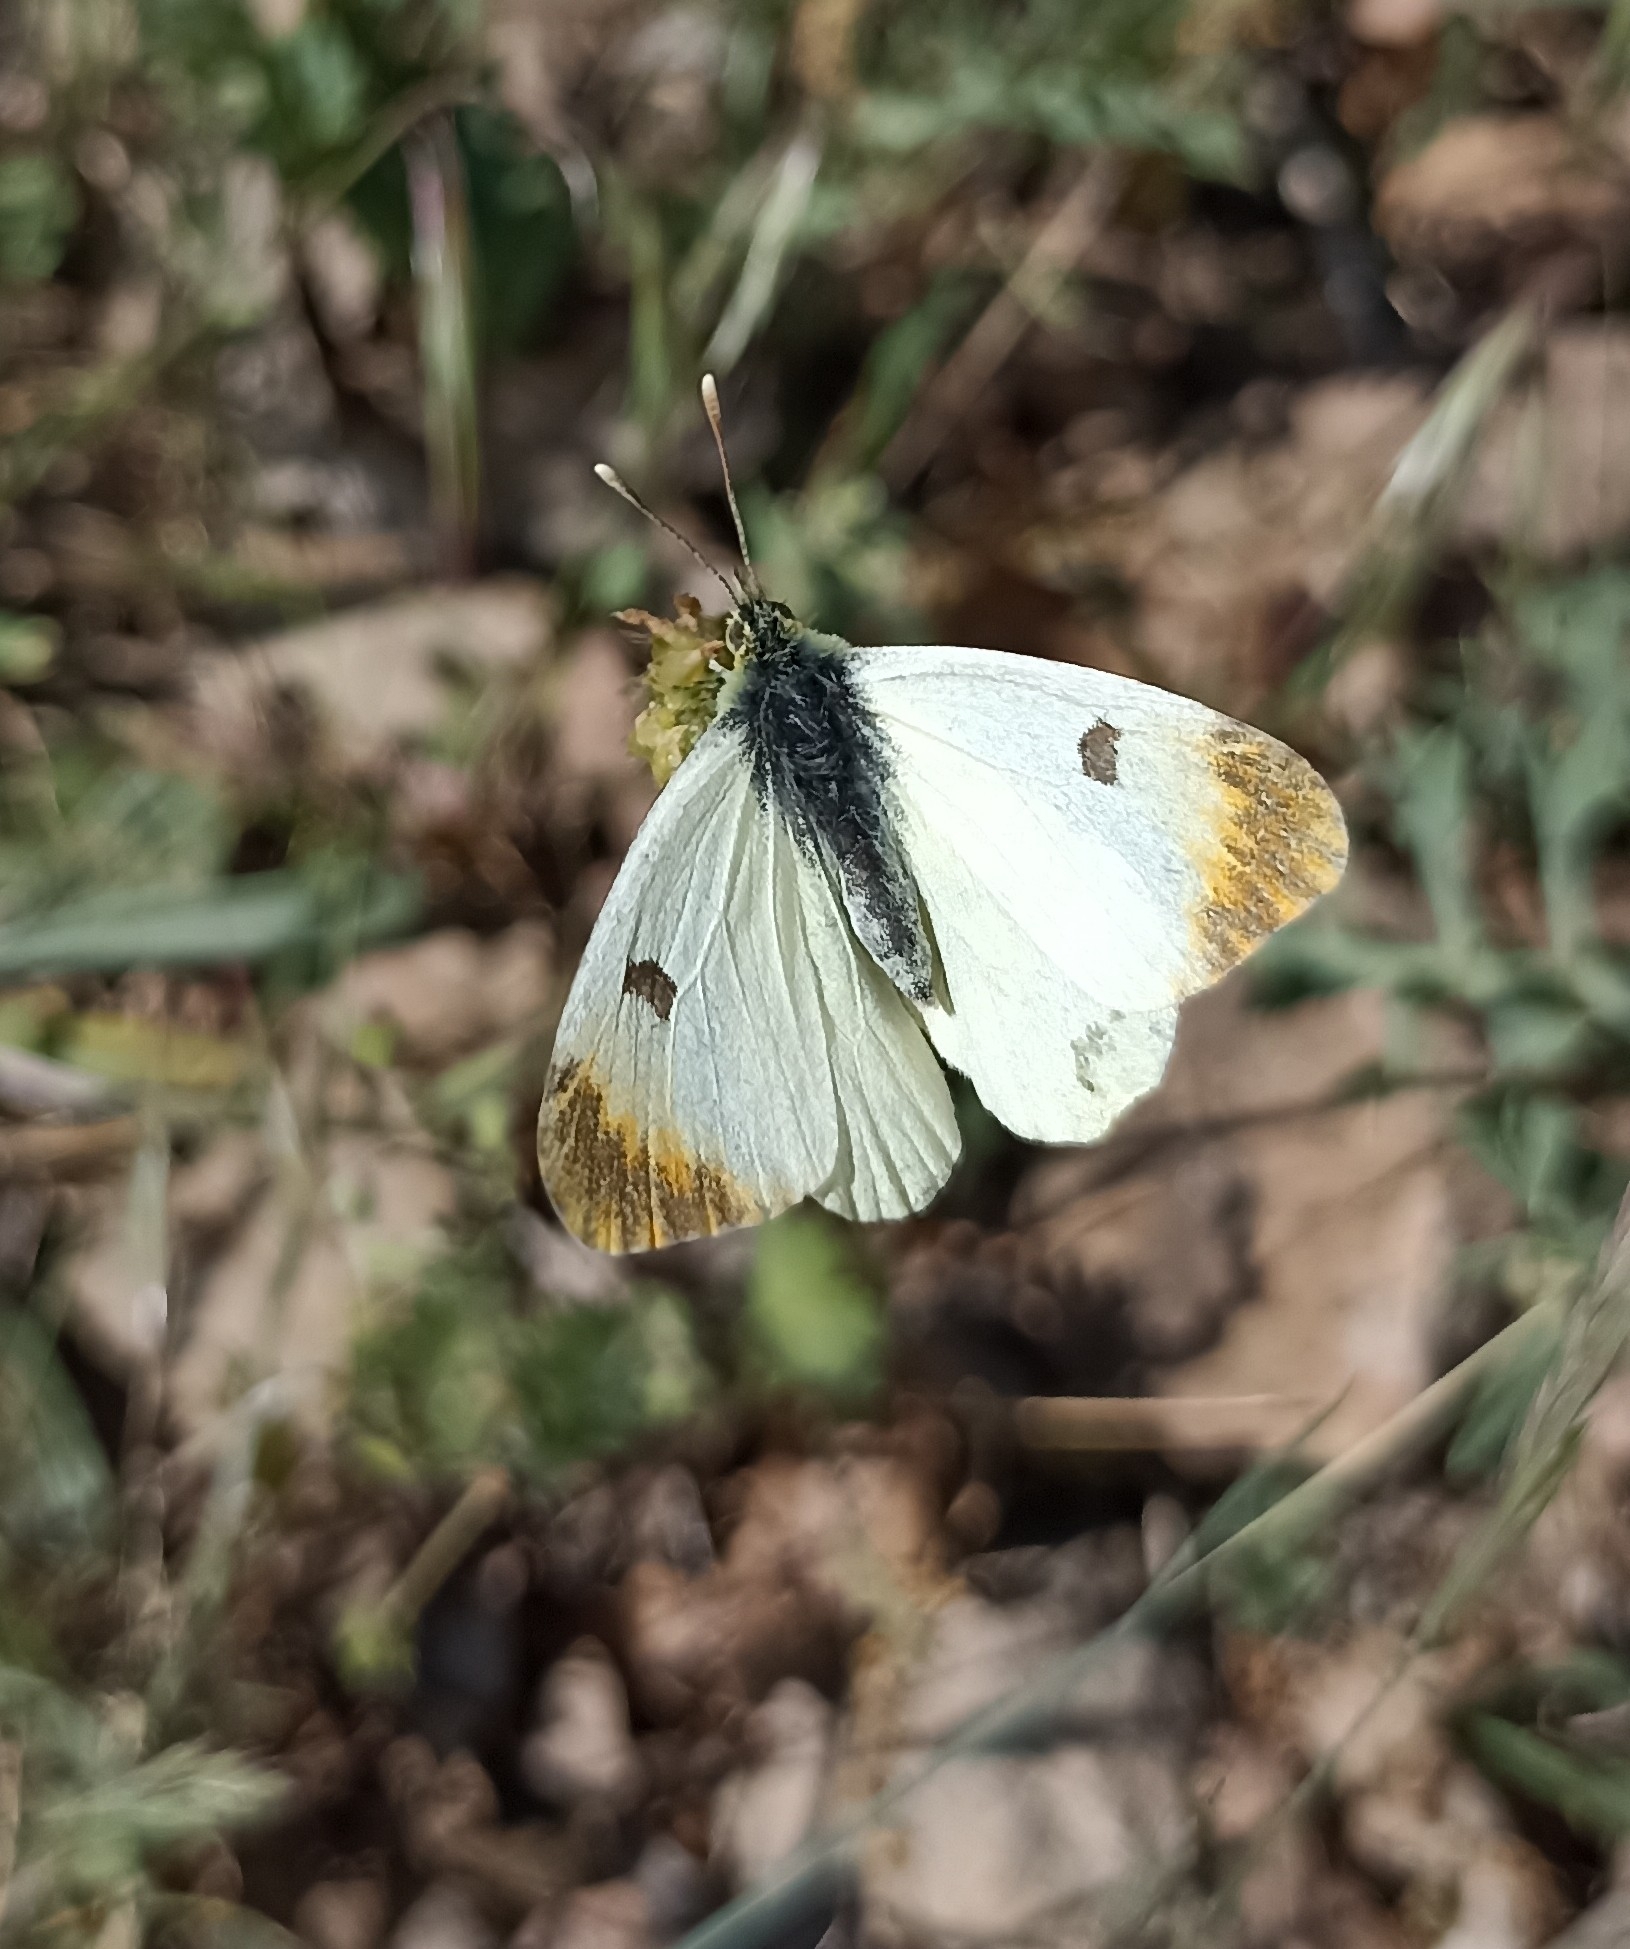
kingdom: Animalia
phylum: Arthropoda
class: Insecta
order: Lepidoptera
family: Pieridae
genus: Anthocharis
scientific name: Anthocharis euphenoides
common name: Provence orange-tip
